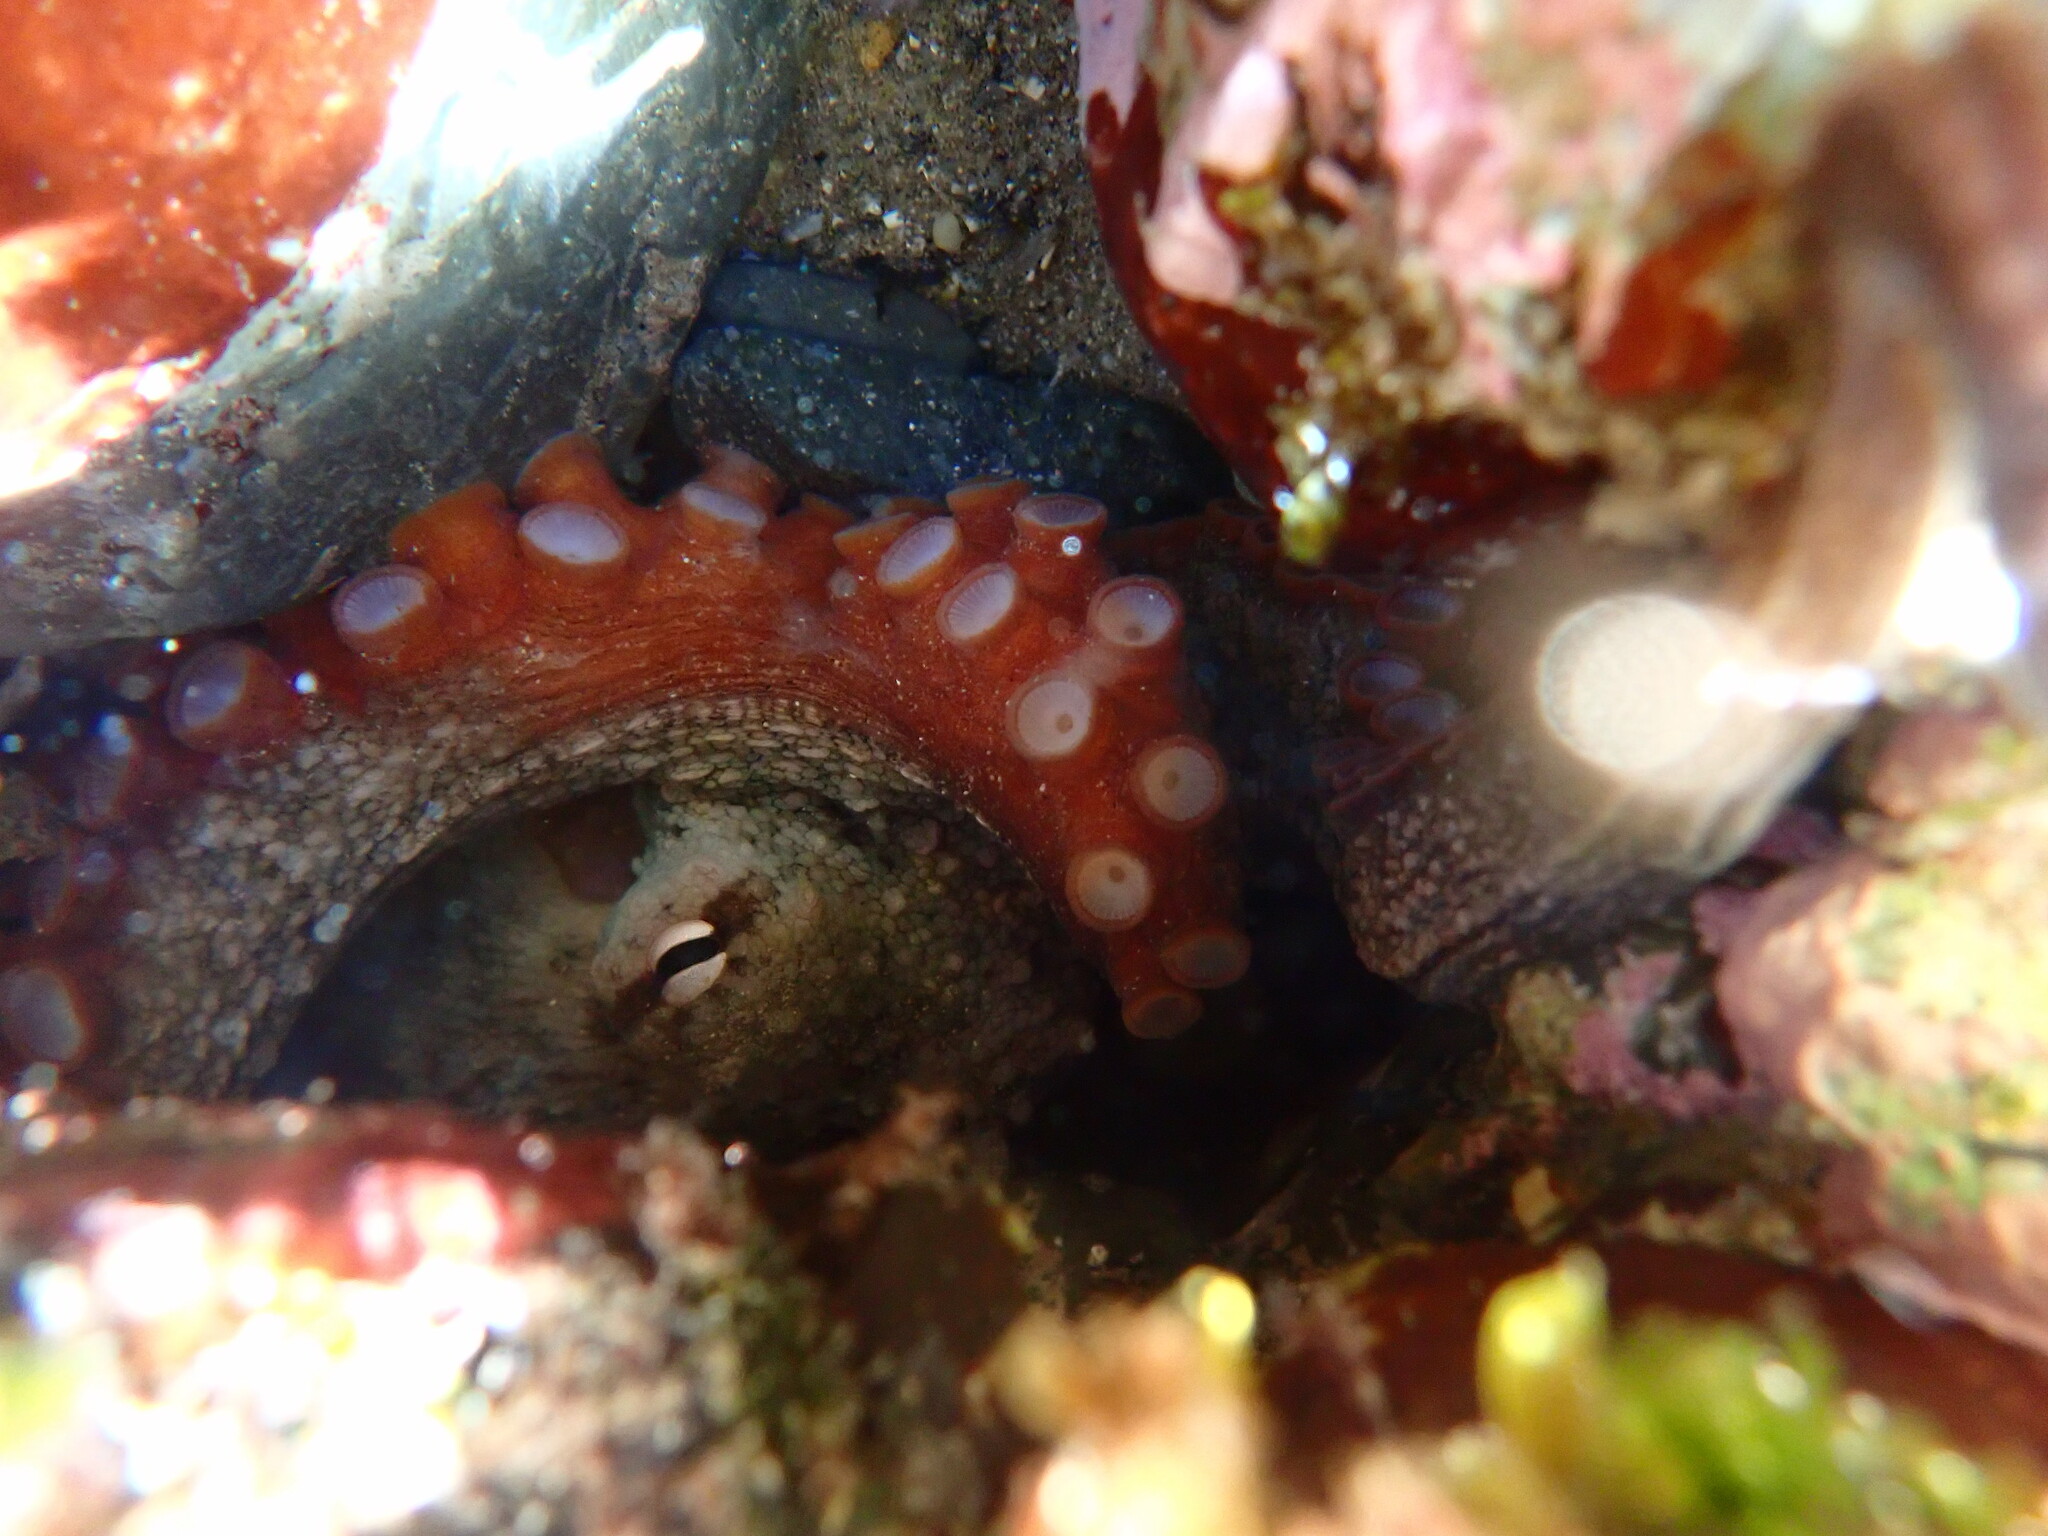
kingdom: Animalia
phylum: Mollusca
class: Cephalopoda
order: Octopoda
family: Octopodidae
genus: Octopus
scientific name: Octopus tetricus
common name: Sydney octopus
